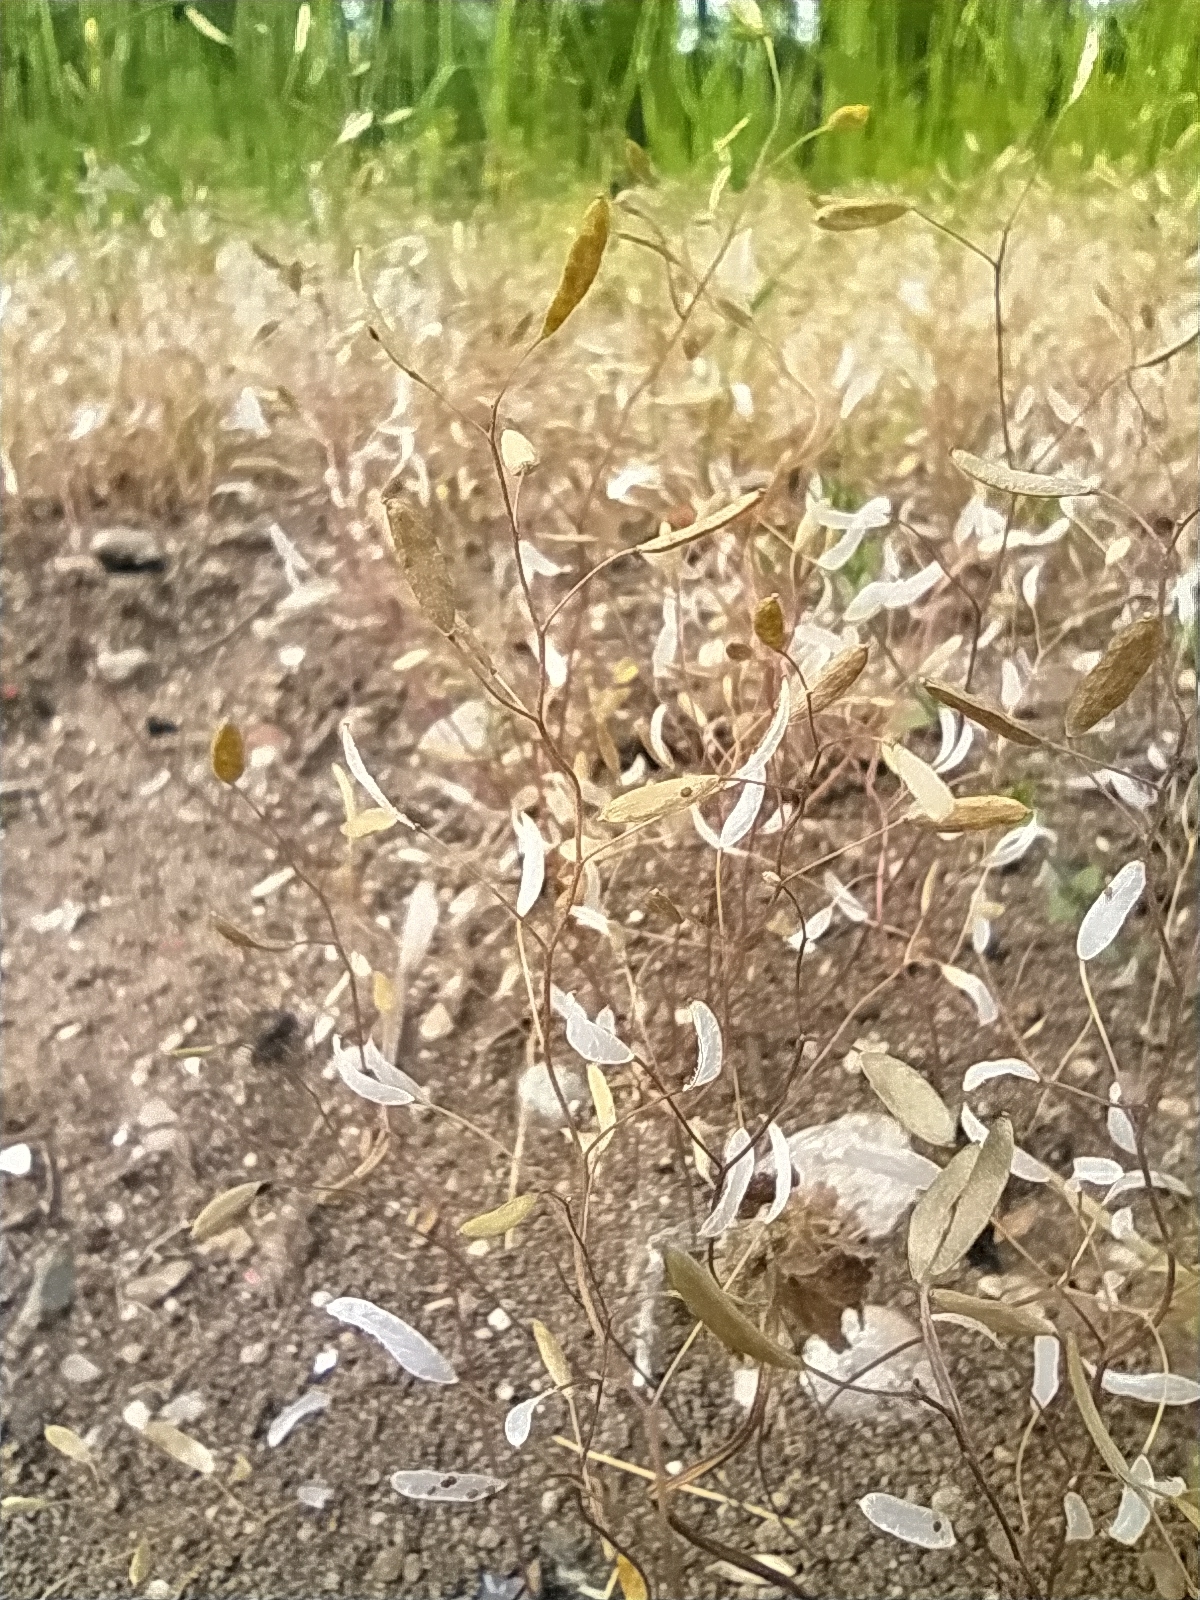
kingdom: Plantae
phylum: Tracheophyta
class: Magnoliopsida
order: Brassicales
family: Brassicaceae
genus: Draba
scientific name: Draba verna
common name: Spring draba
